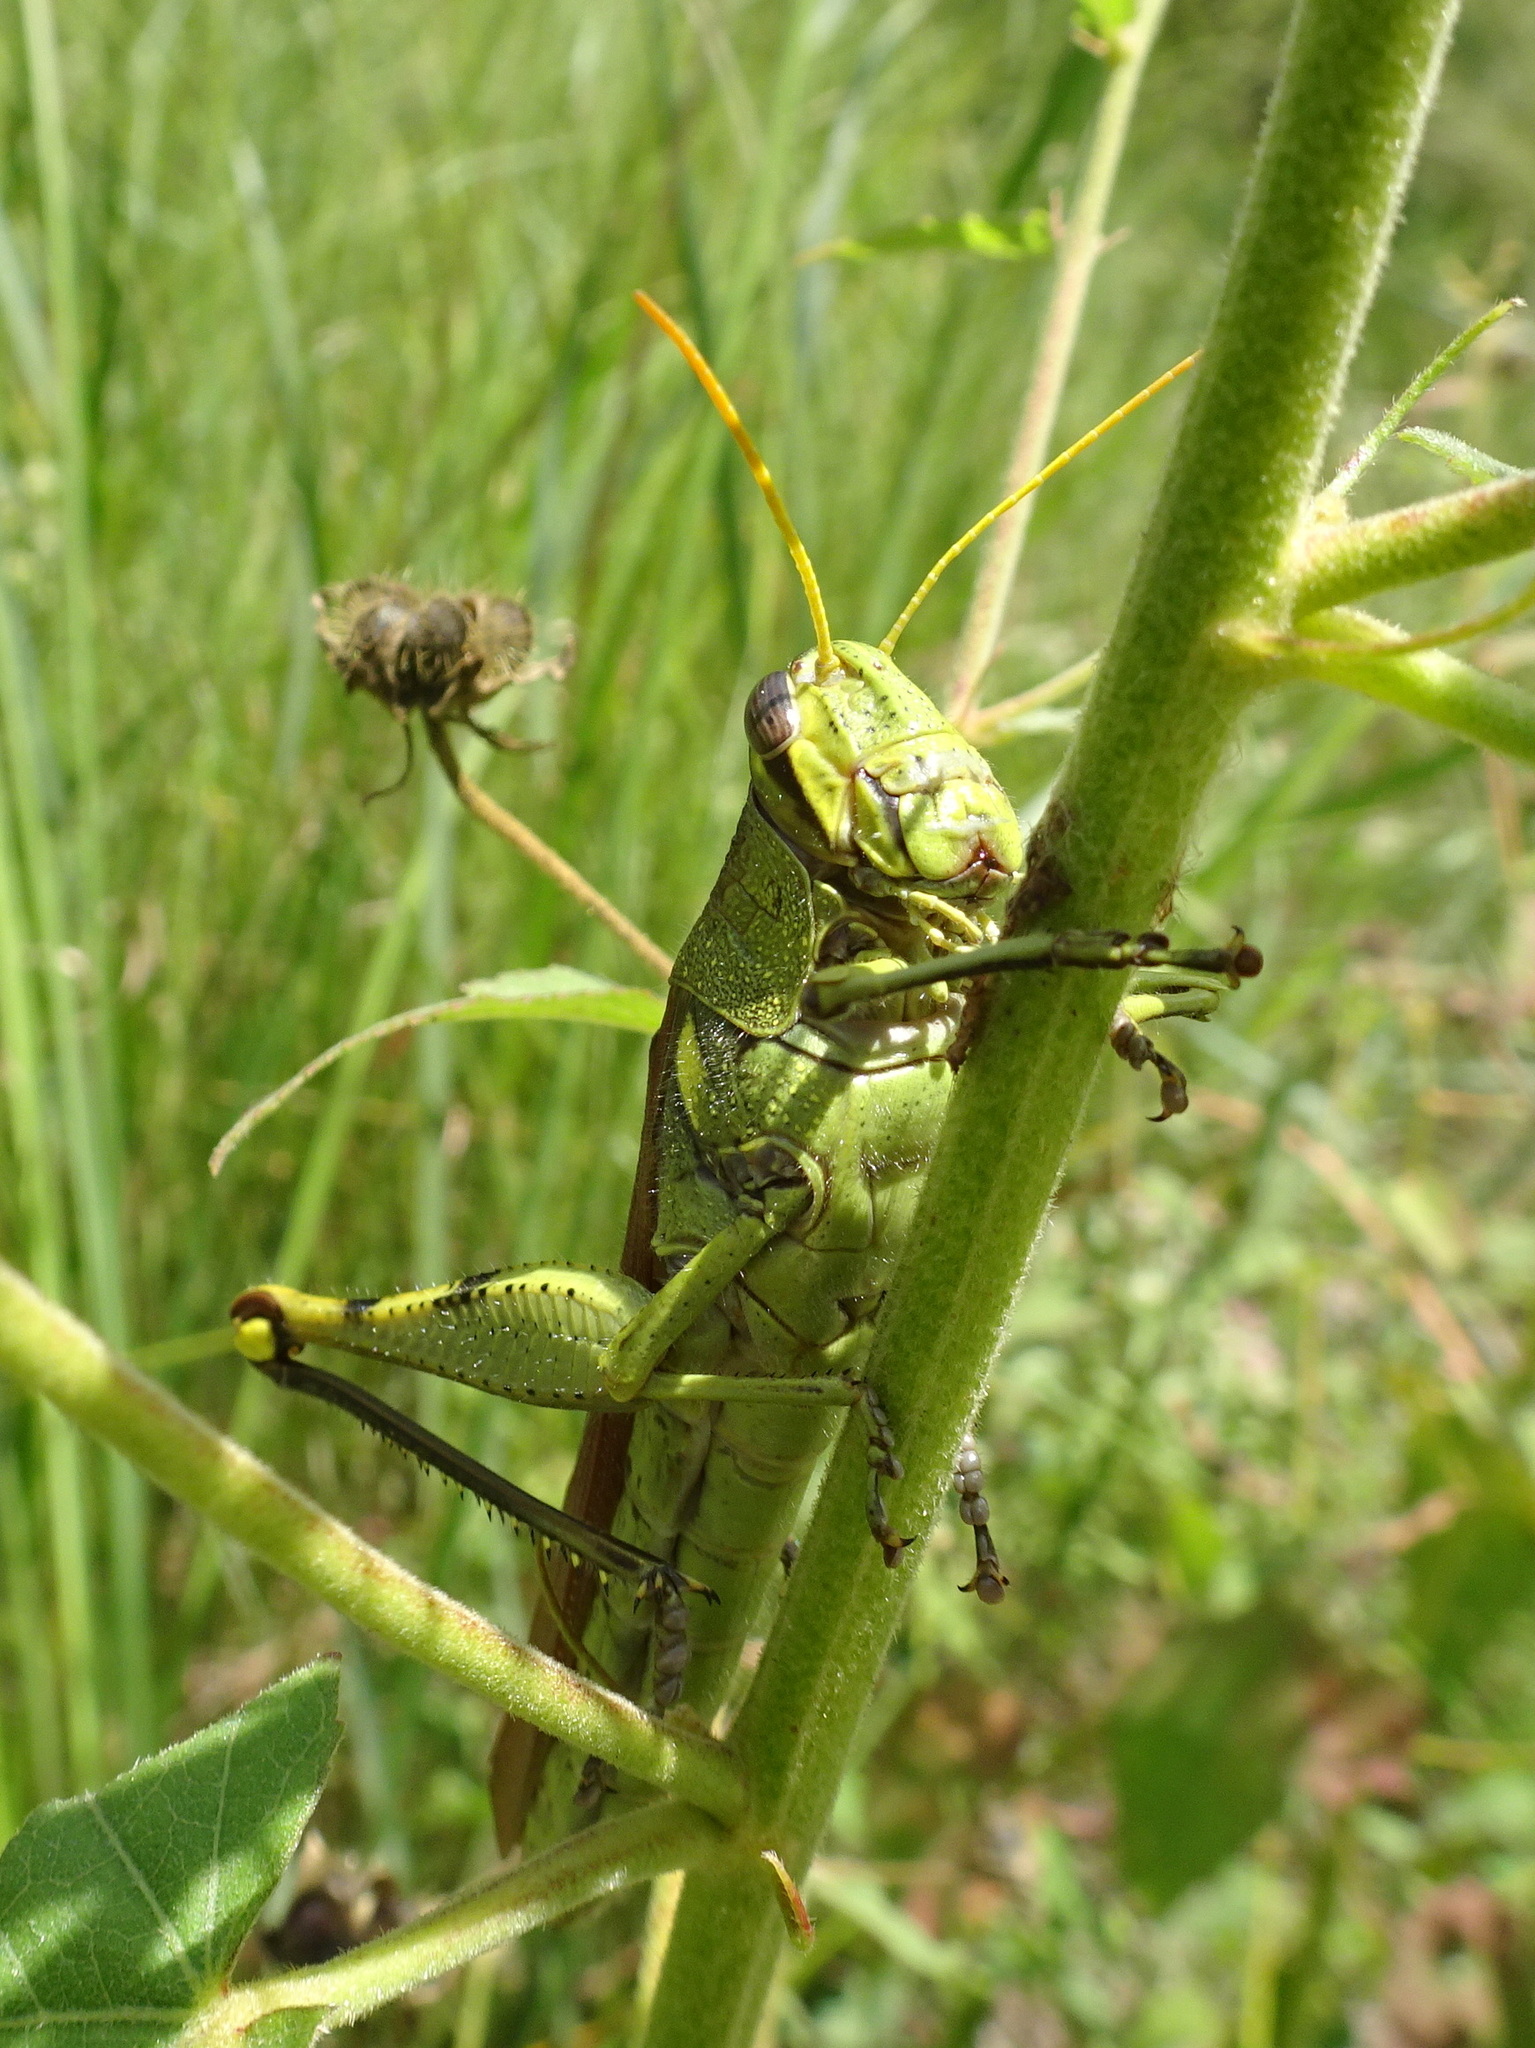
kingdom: Animalia
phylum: Arthropoda
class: Insecta
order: Orthoptera
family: Acrididae
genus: Schistocerca
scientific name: Schistocerca obscura
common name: Obscure bird grasshopper
